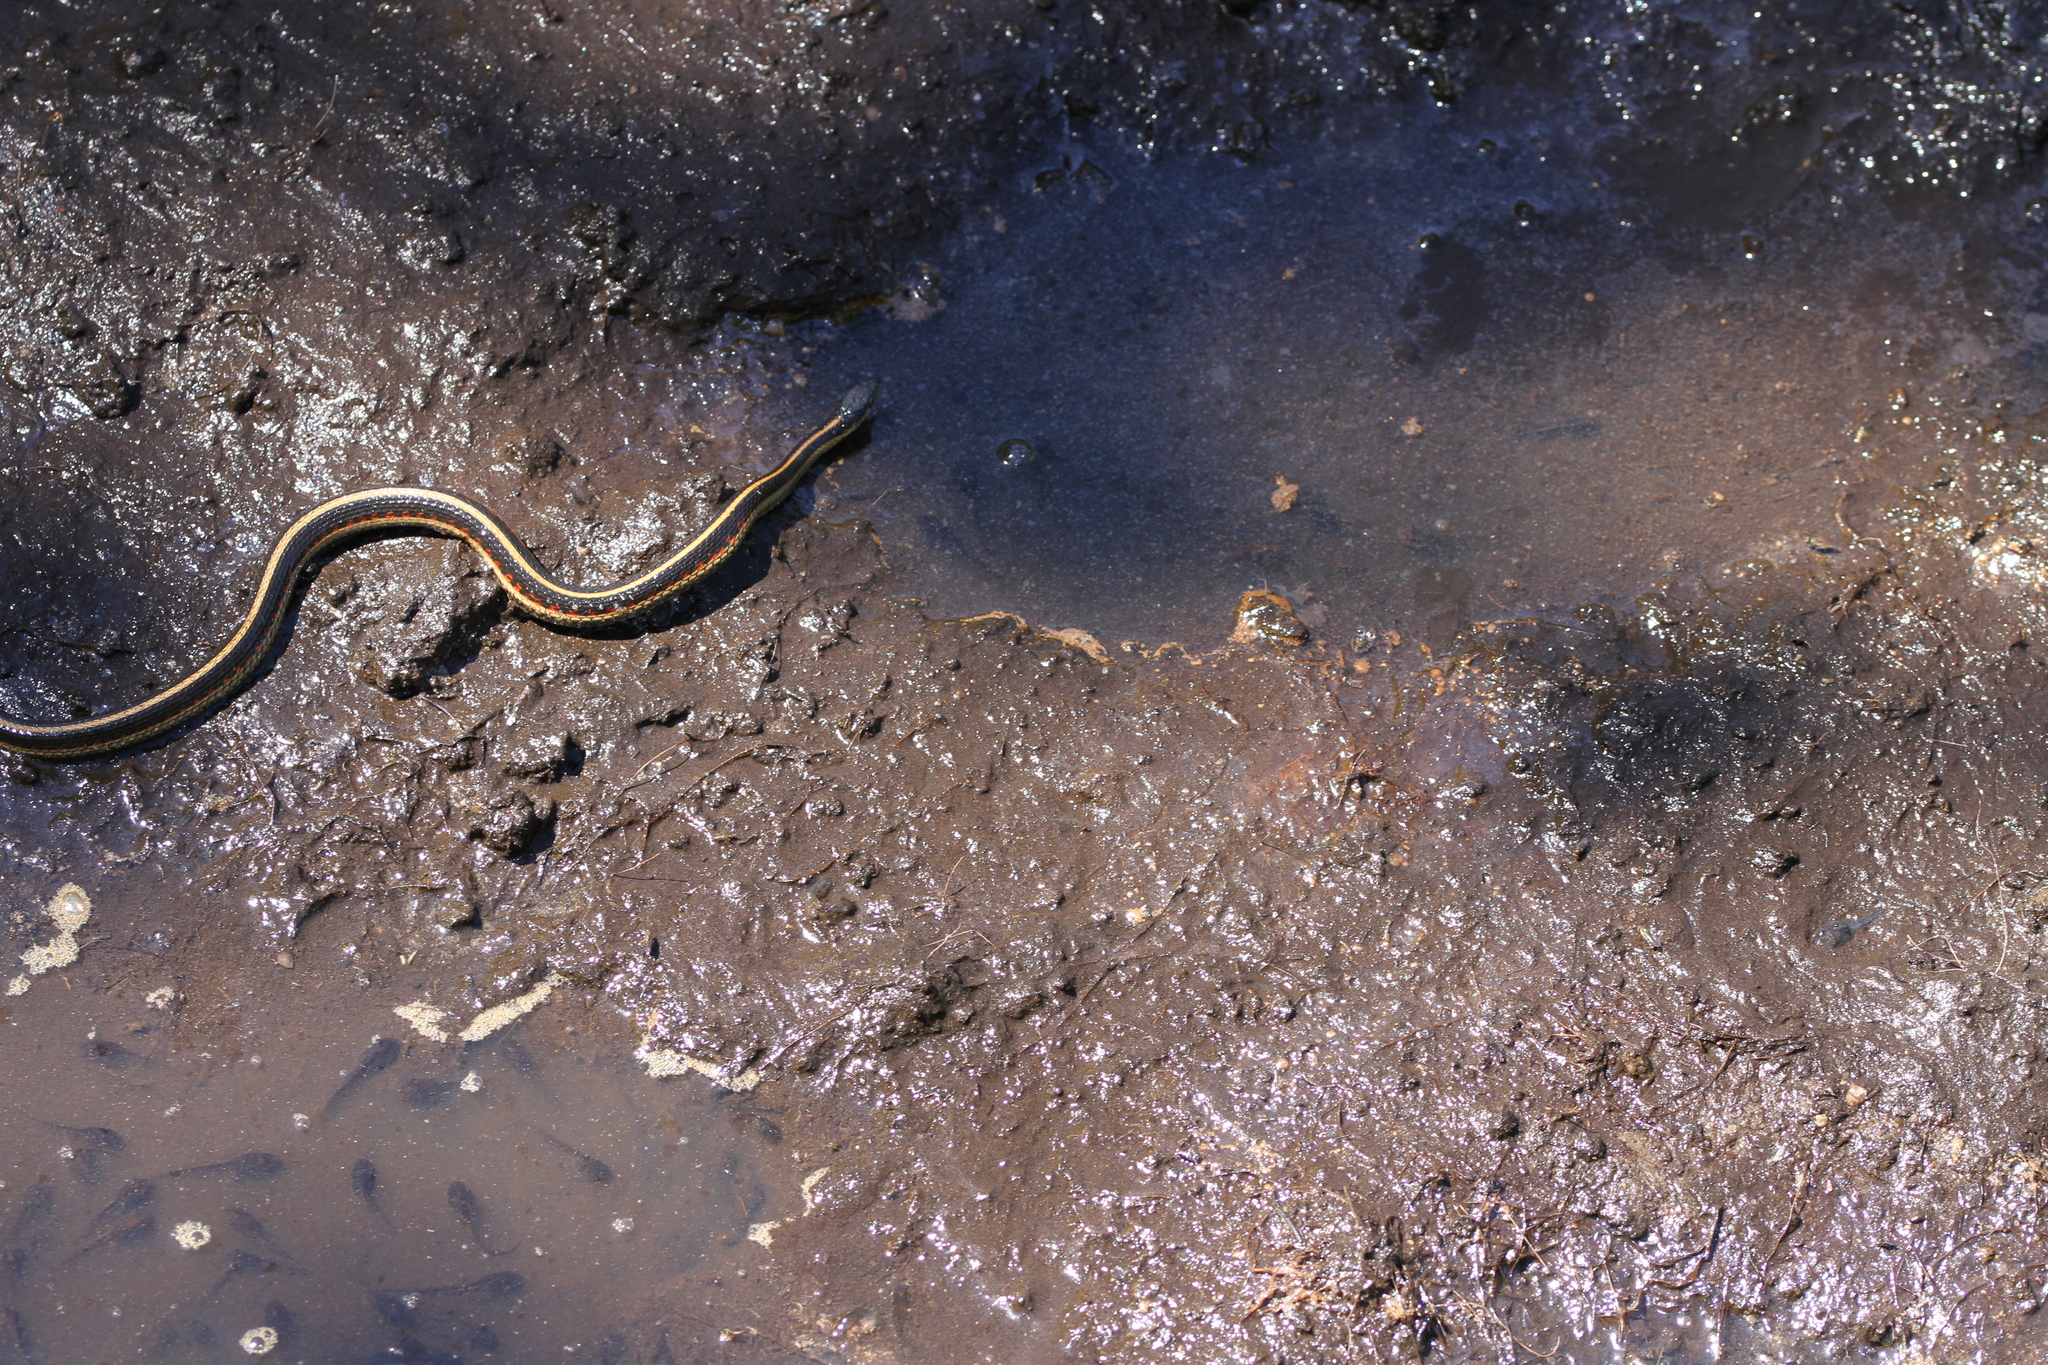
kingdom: Animalia
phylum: Chordata
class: Squamata
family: Colubridae
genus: Thamnophis
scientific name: Thamnophis sirtalis
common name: Common garter snake
